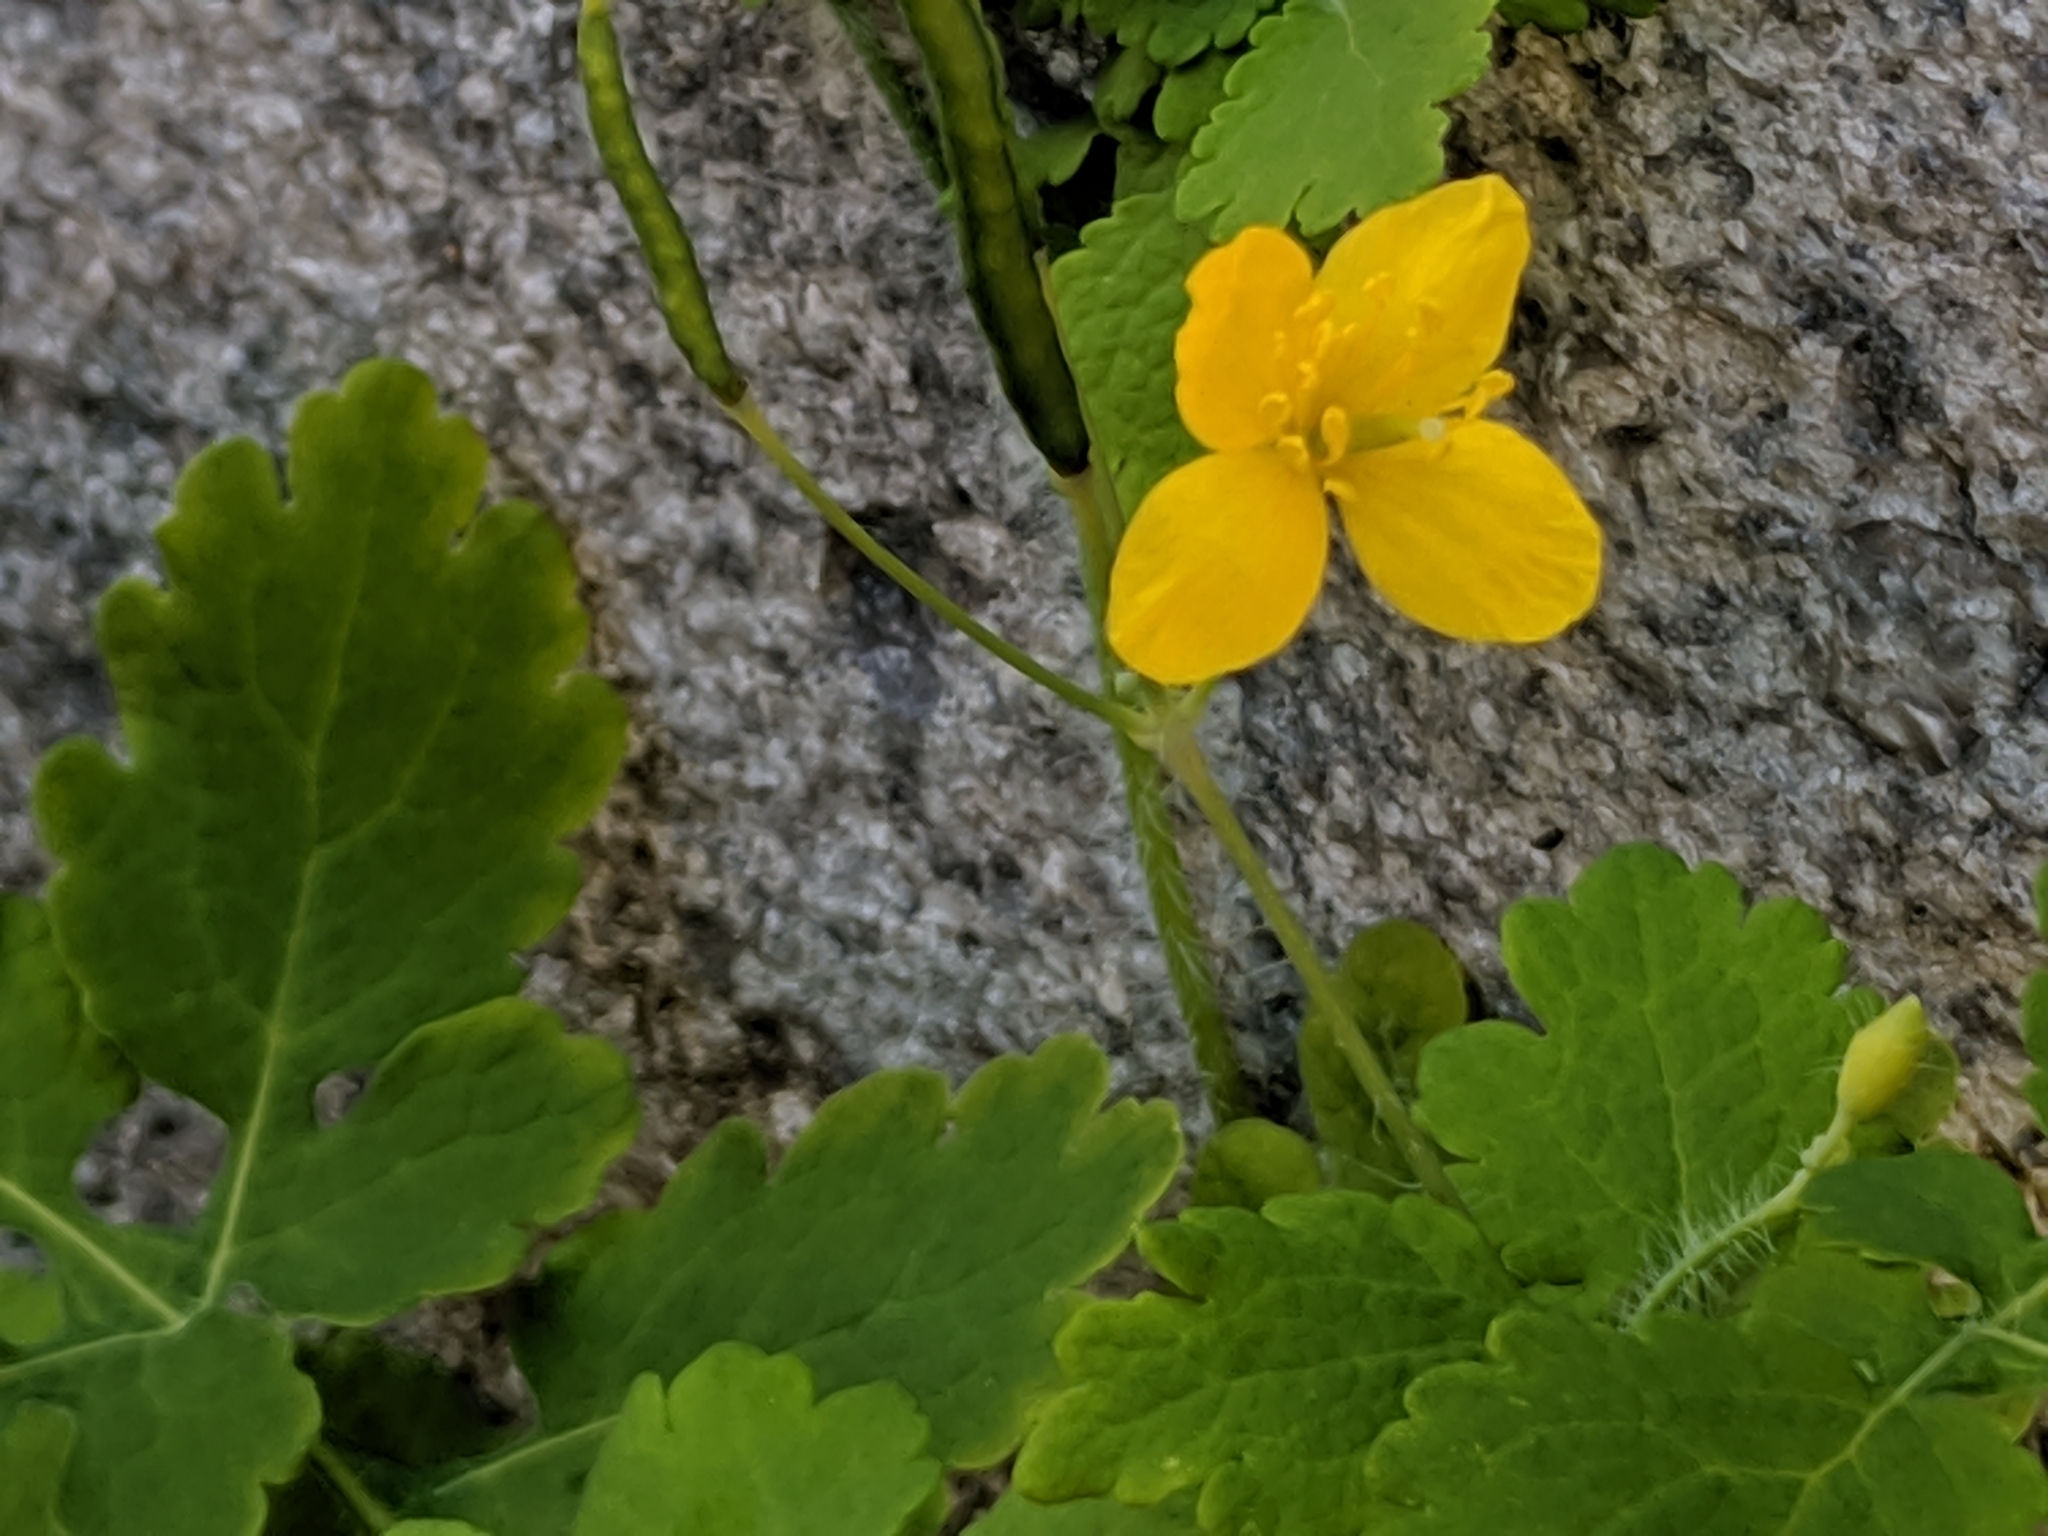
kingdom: Plantae
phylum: Tracheophyta
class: Magnoliopsida
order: Ranunculales
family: Papaveraceae
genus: Chelidonium
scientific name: Chelidonium majus
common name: Greater celandine
